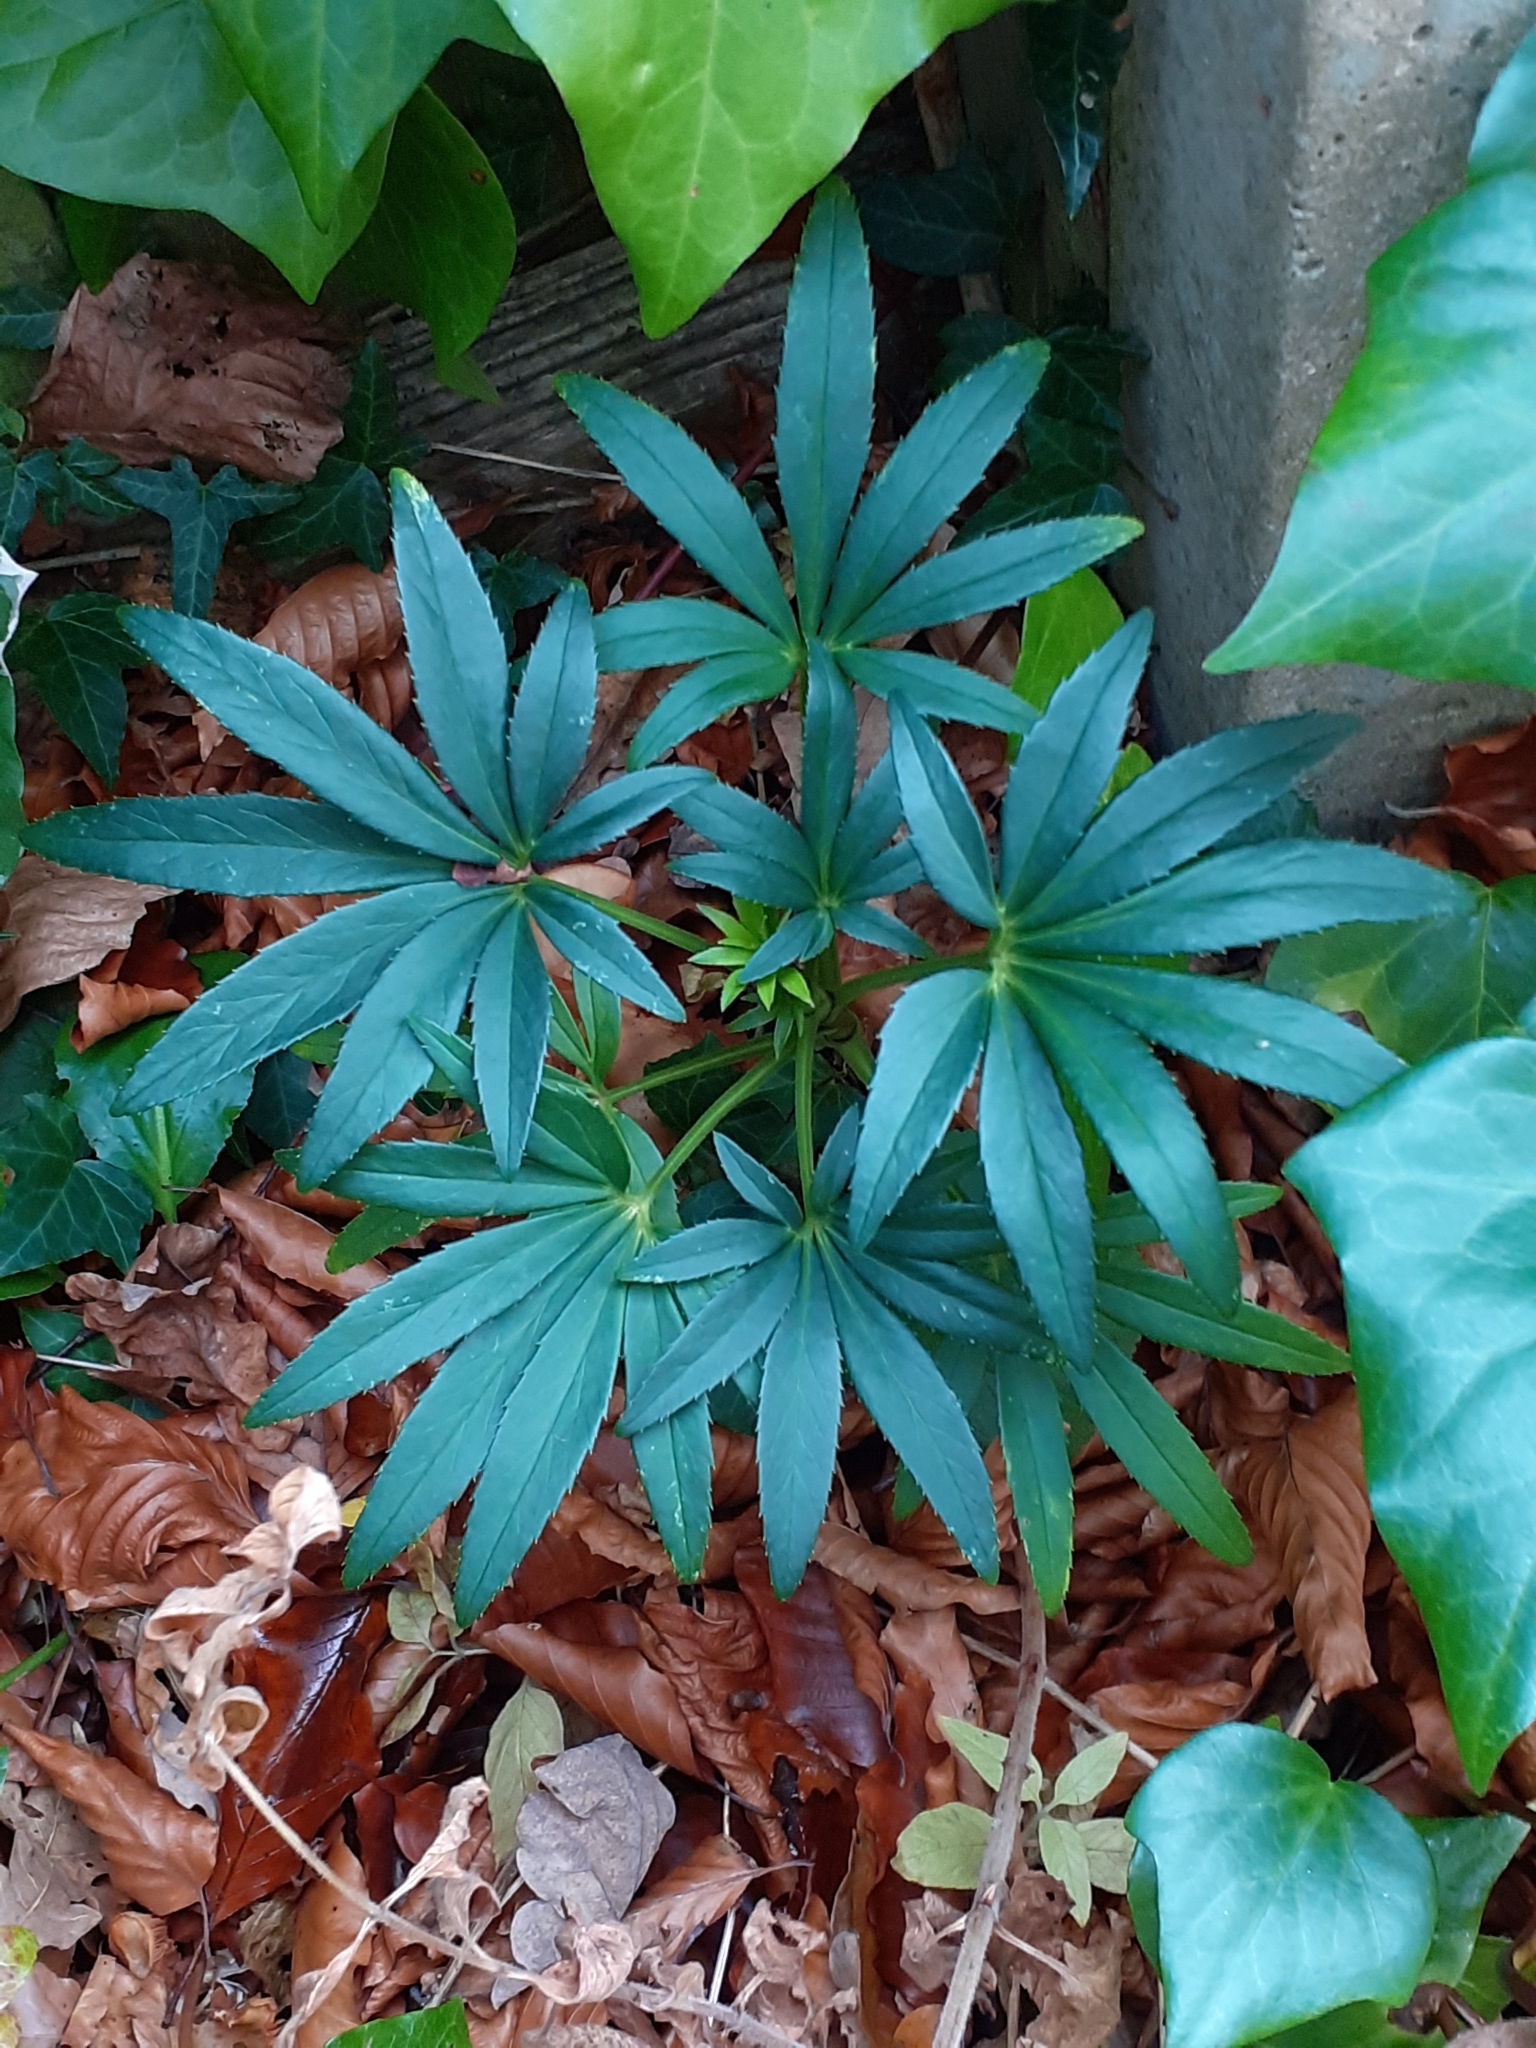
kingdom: Plantae
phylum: Tracheophyta
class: Magnoliopsida
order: Ranunculales
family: Ranunculaceae
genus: Helleborus
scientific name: Helleborus foetidus
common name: Stinking hellebore
